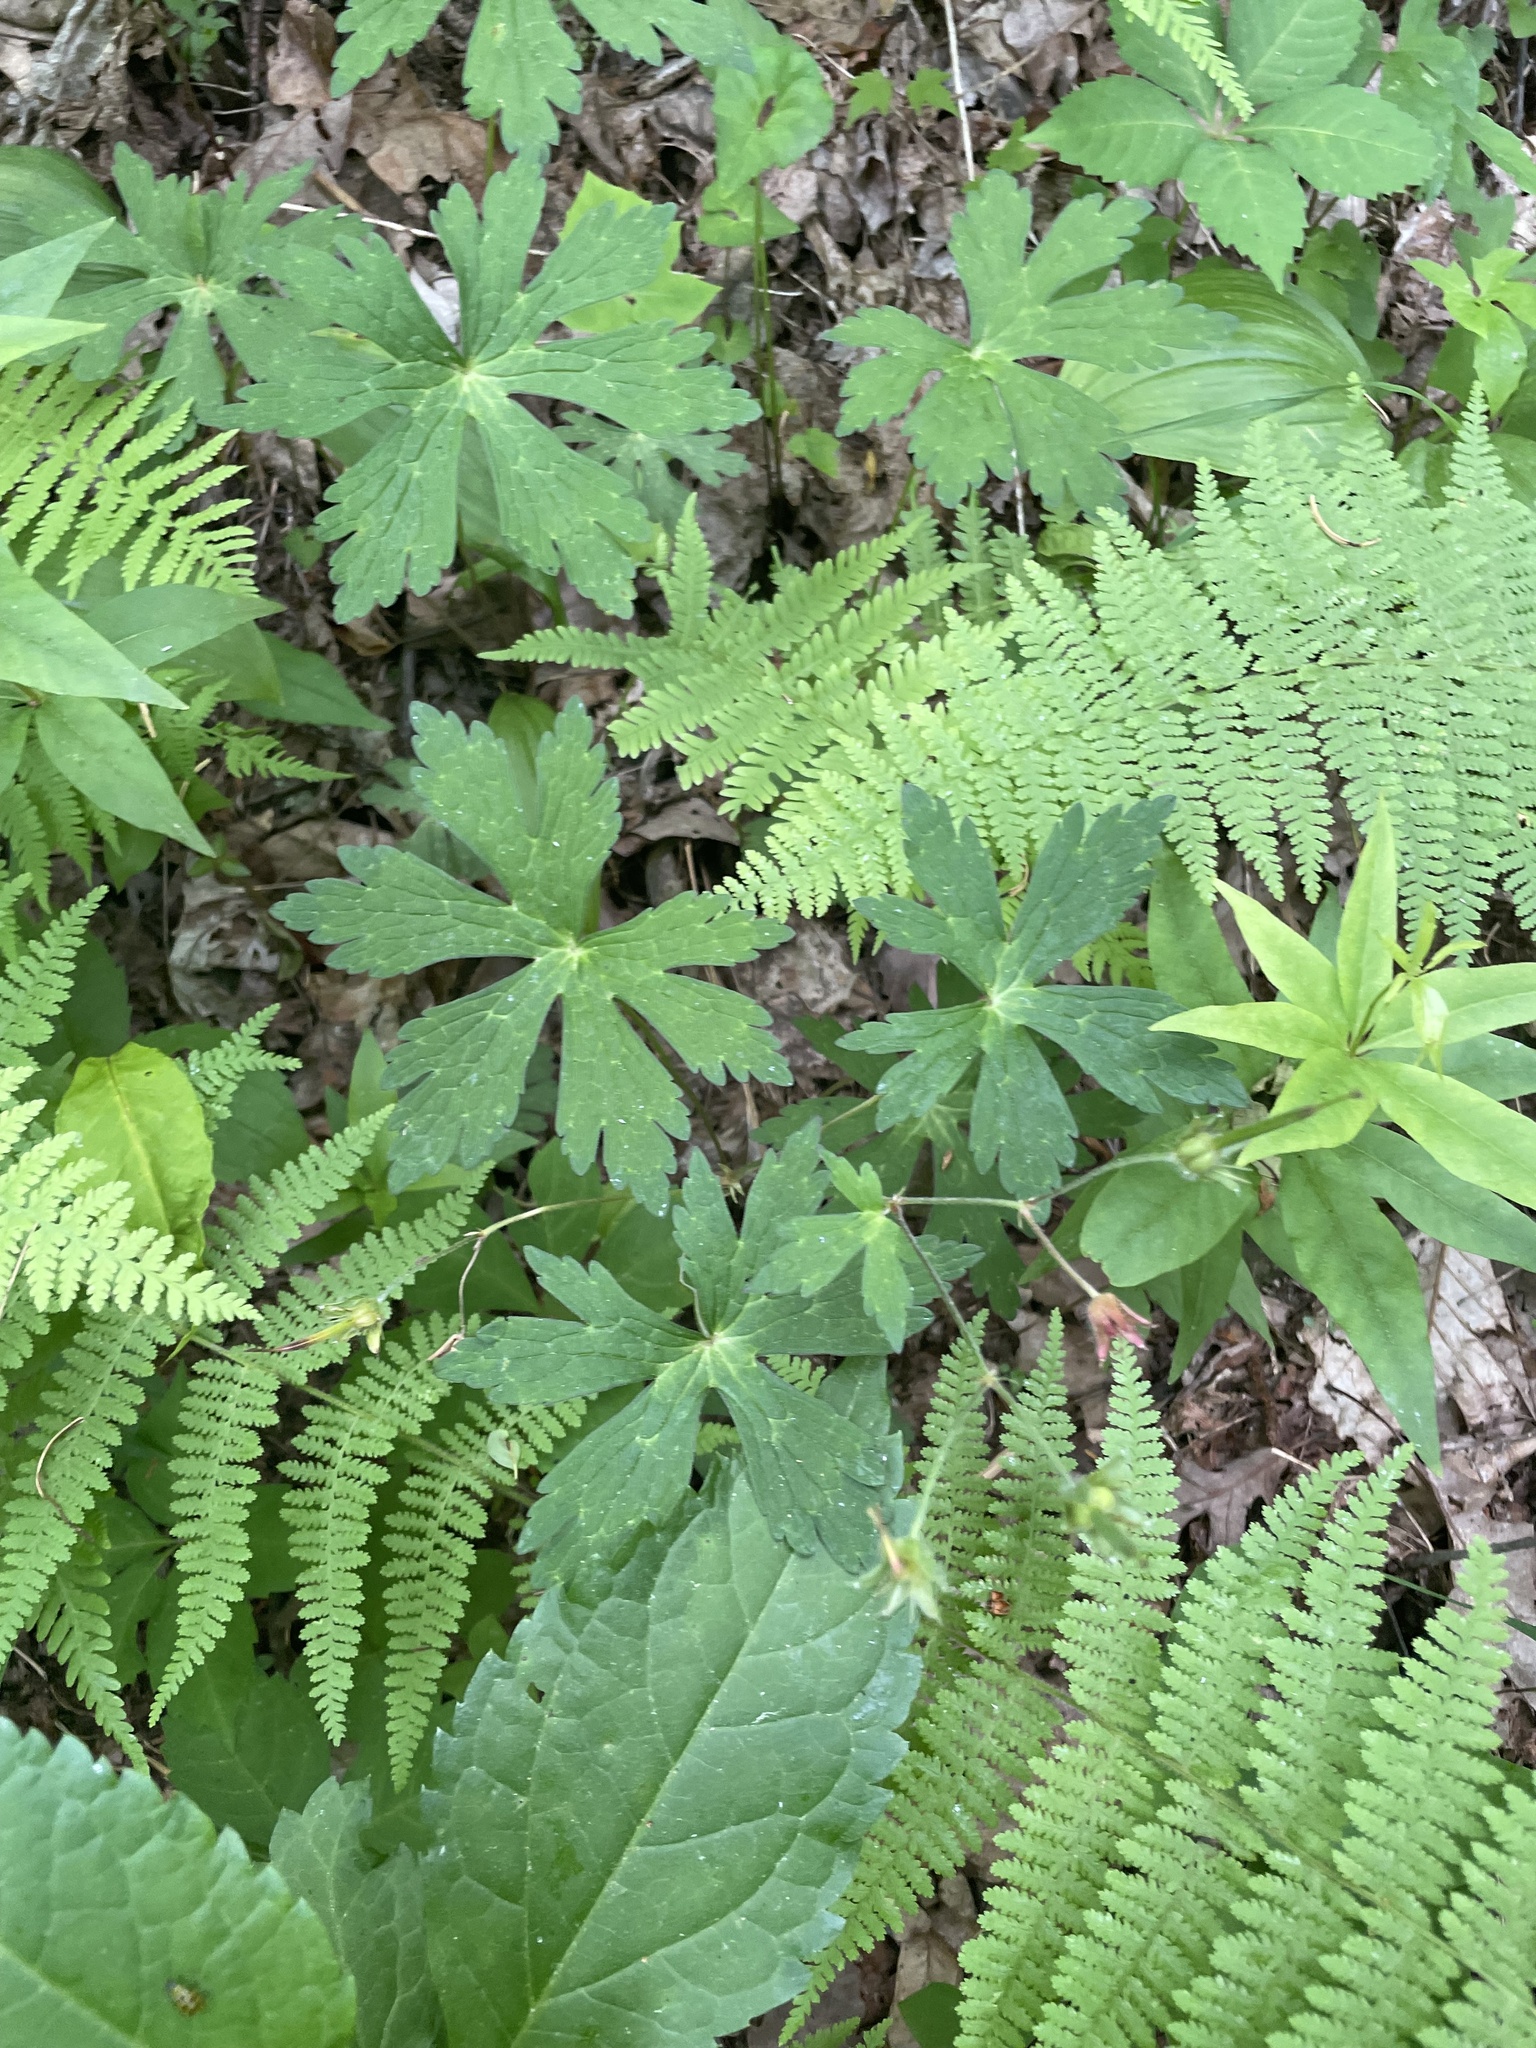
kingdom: Plantae
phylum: Tracheophyta
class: Magnoliopsida
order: Geraniales
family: Geraniaceae
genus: Geranium
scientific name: Geranium maculatum
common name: Spotted geranium
